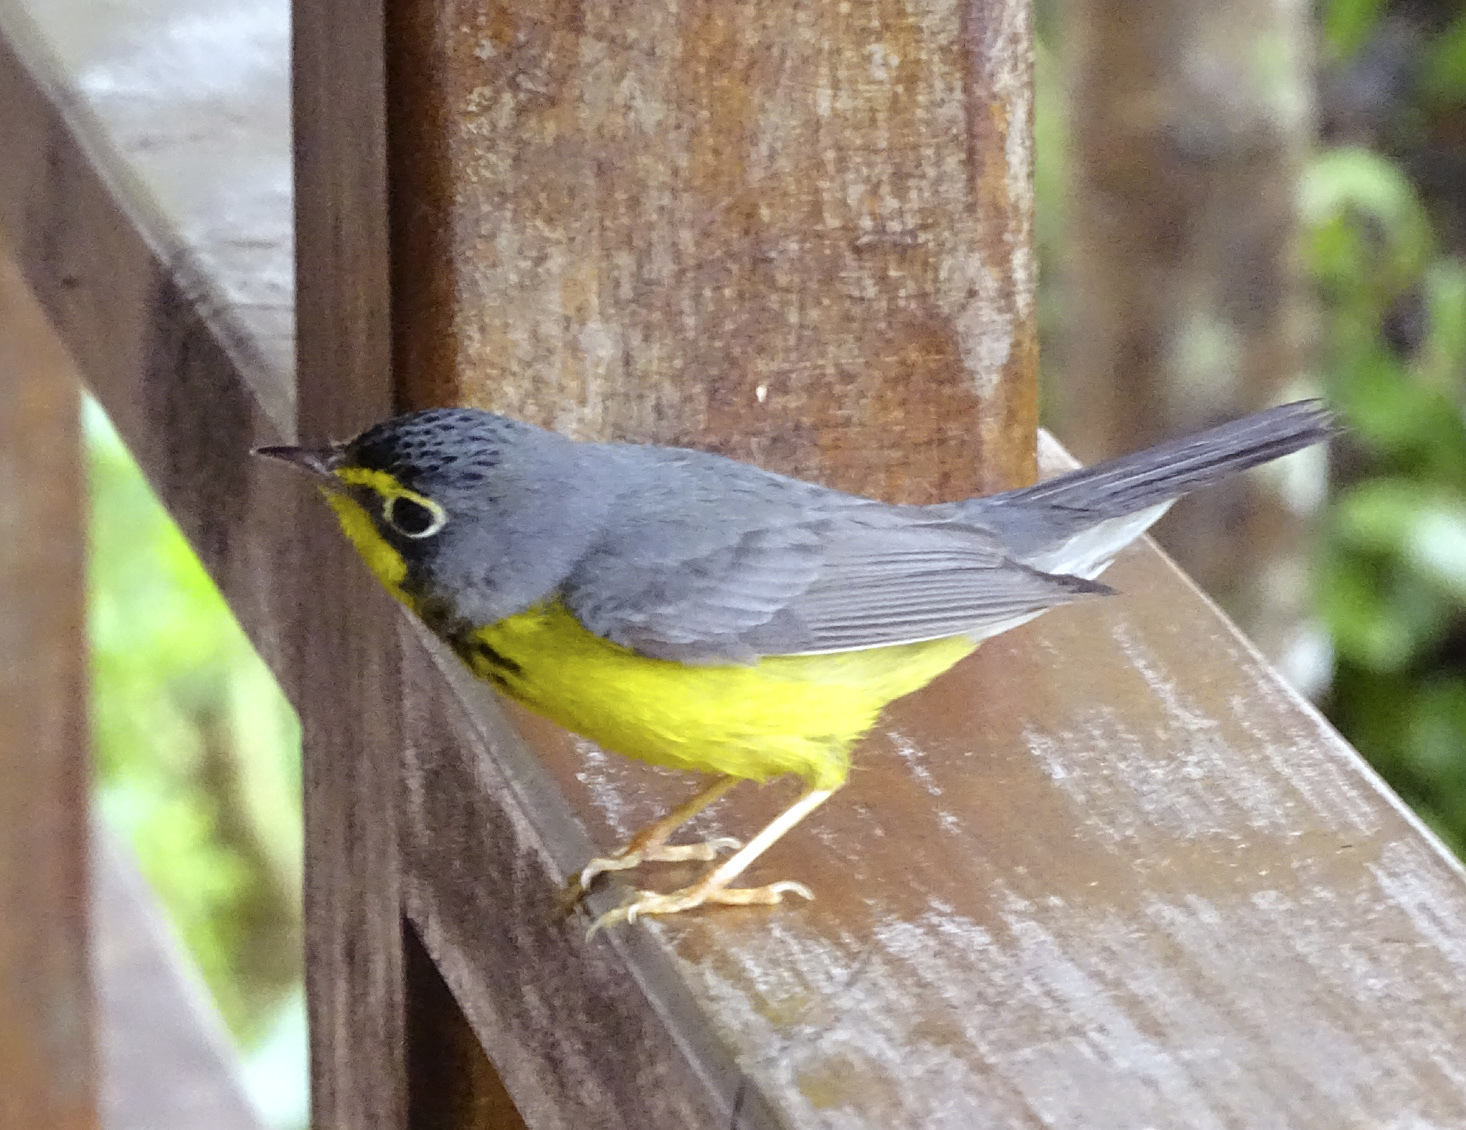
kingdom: Animalia
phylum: Chordata
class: Aves
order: Passeriformes
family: Parulidae
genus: Cardellina
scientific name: Cardellina canadensis
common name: Canada warbler
